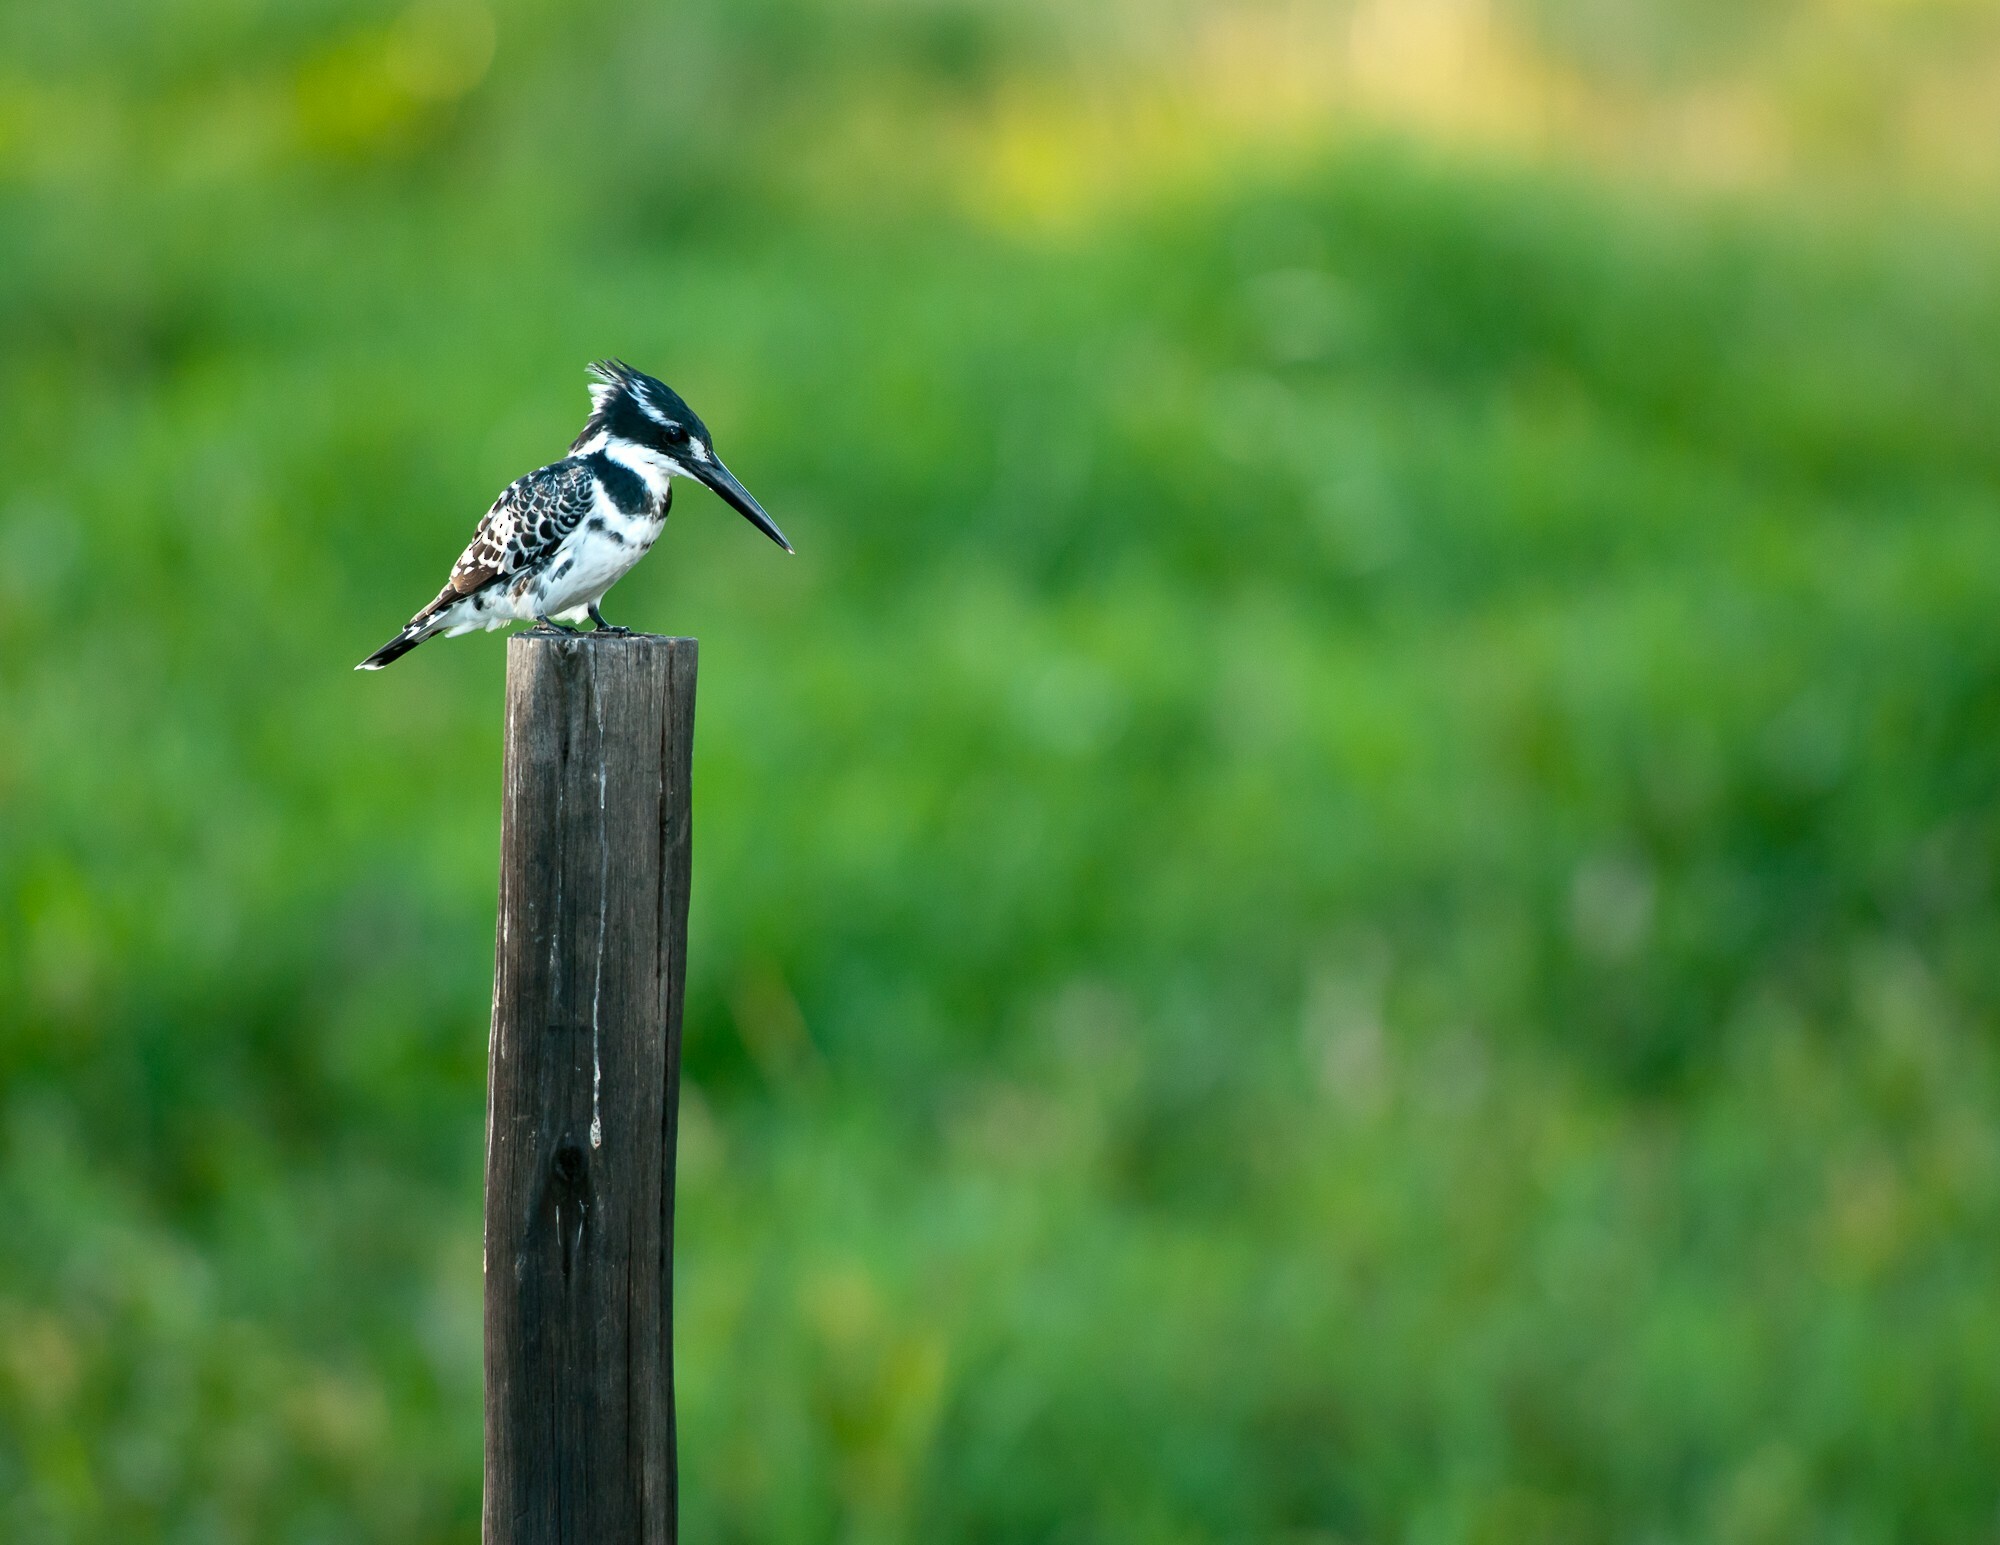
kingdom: Animalia
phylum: Chordata
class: Aves
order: Coraciiformes
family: Alcedinidae
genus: Ceryle
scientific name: Ceryle rudis
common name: Pied kingfisher
